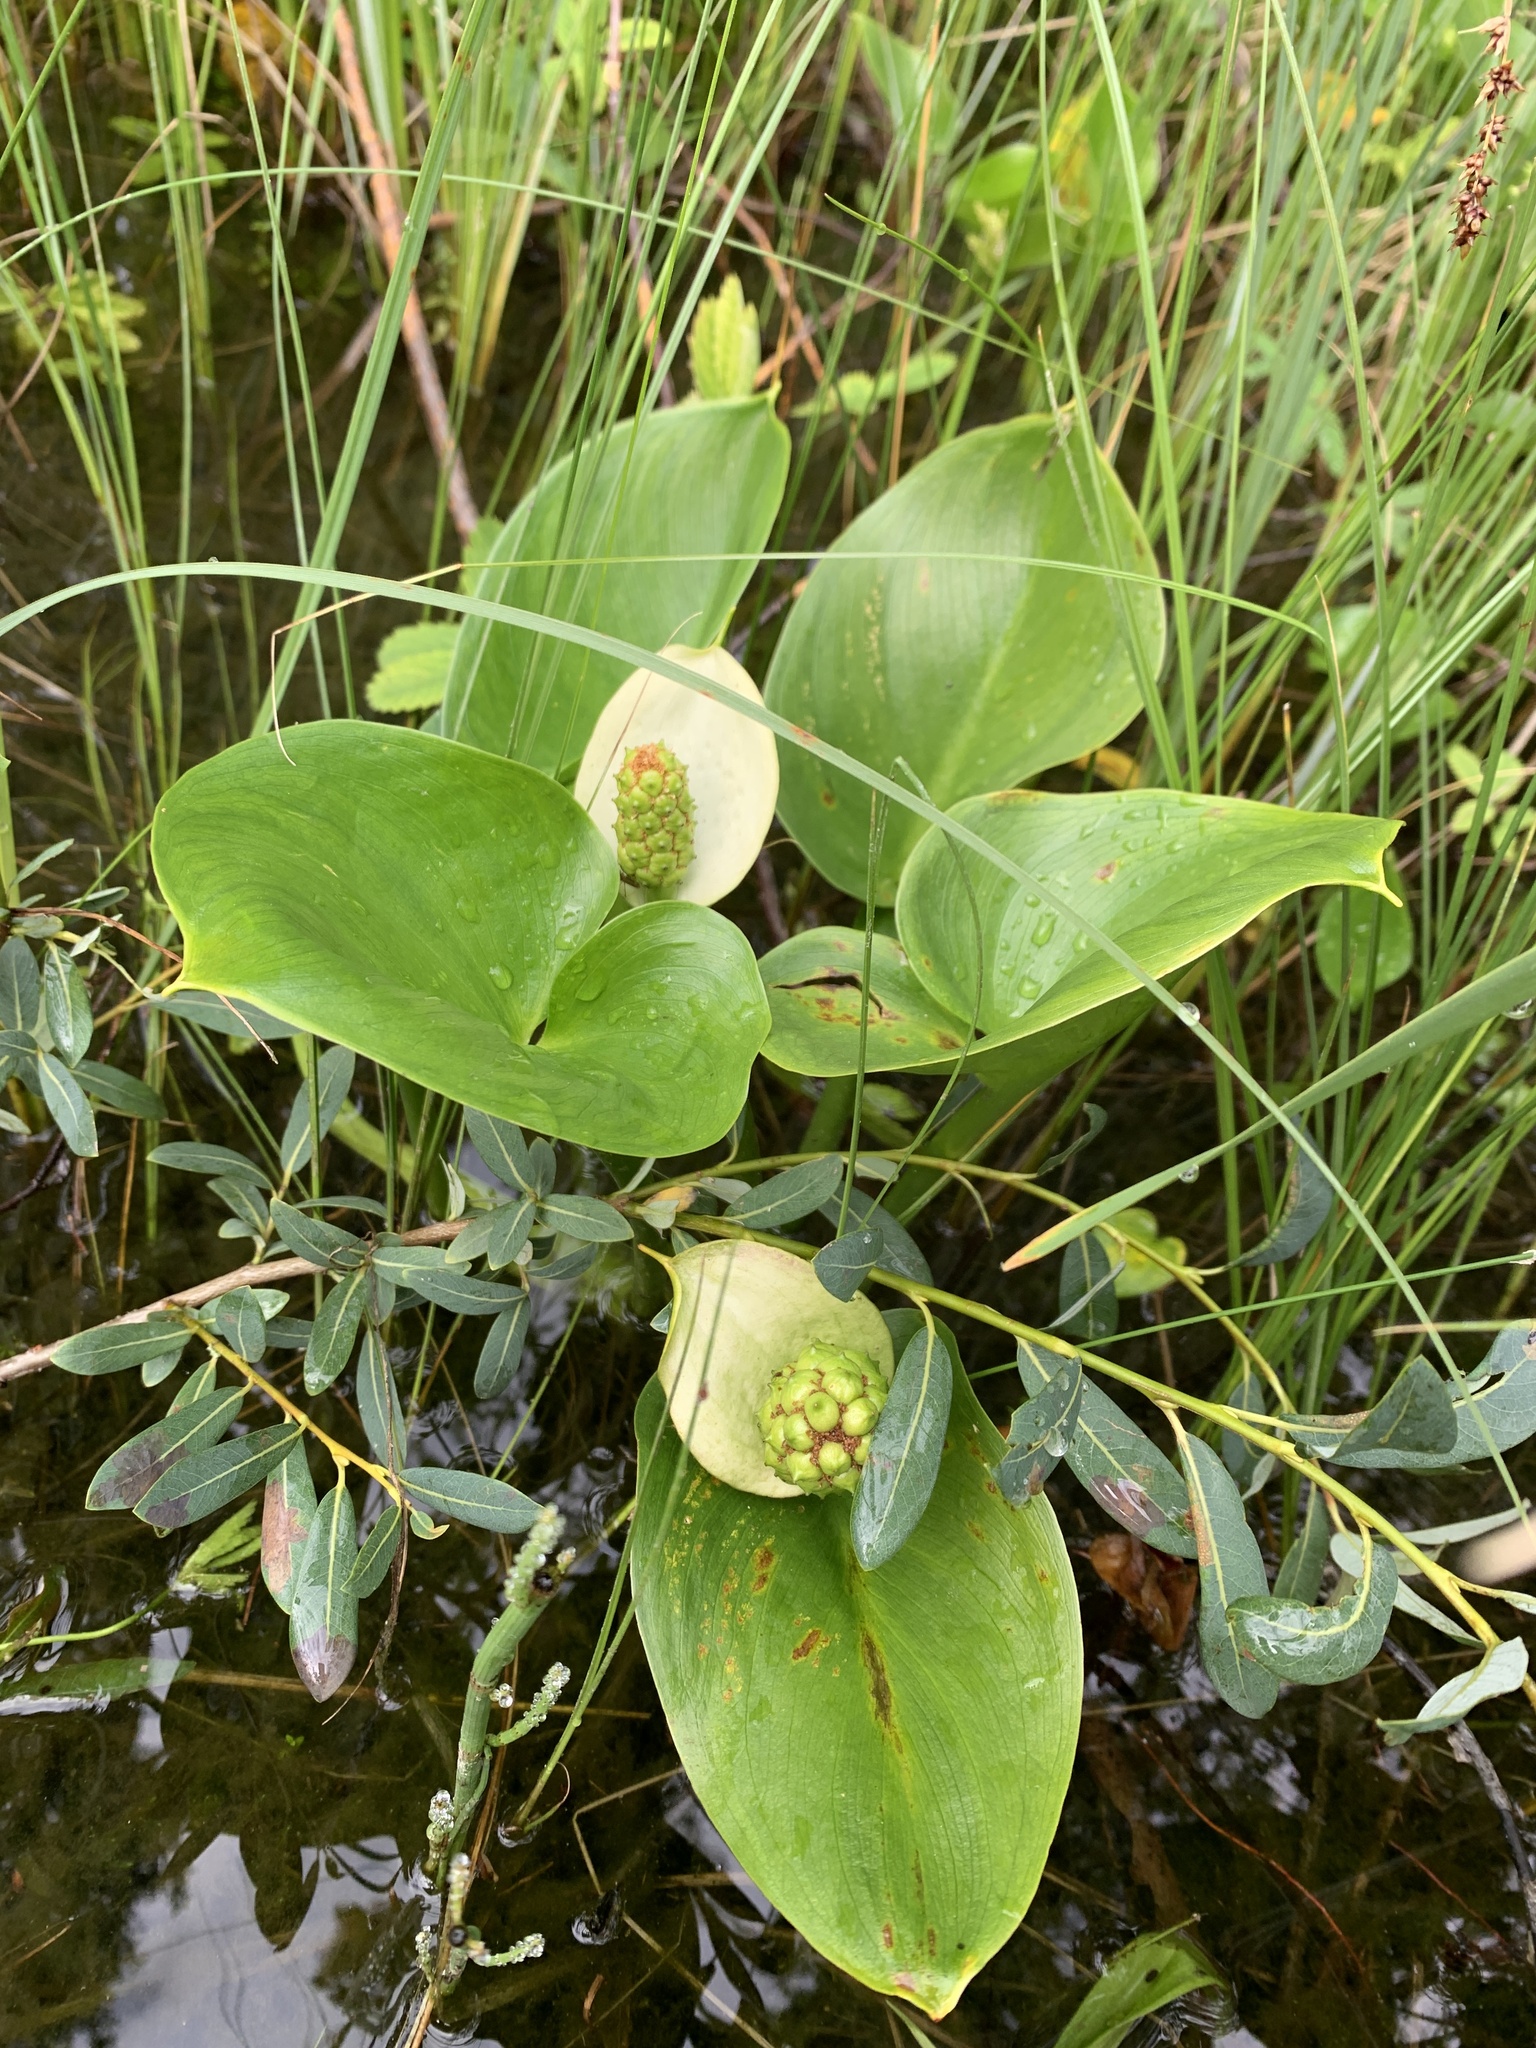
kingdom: Plantae
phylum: Tracheophyta
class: Liliopsida
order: Alismatales
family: Araceae
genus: Calla
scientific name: Calla palustris
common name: Bog arum
